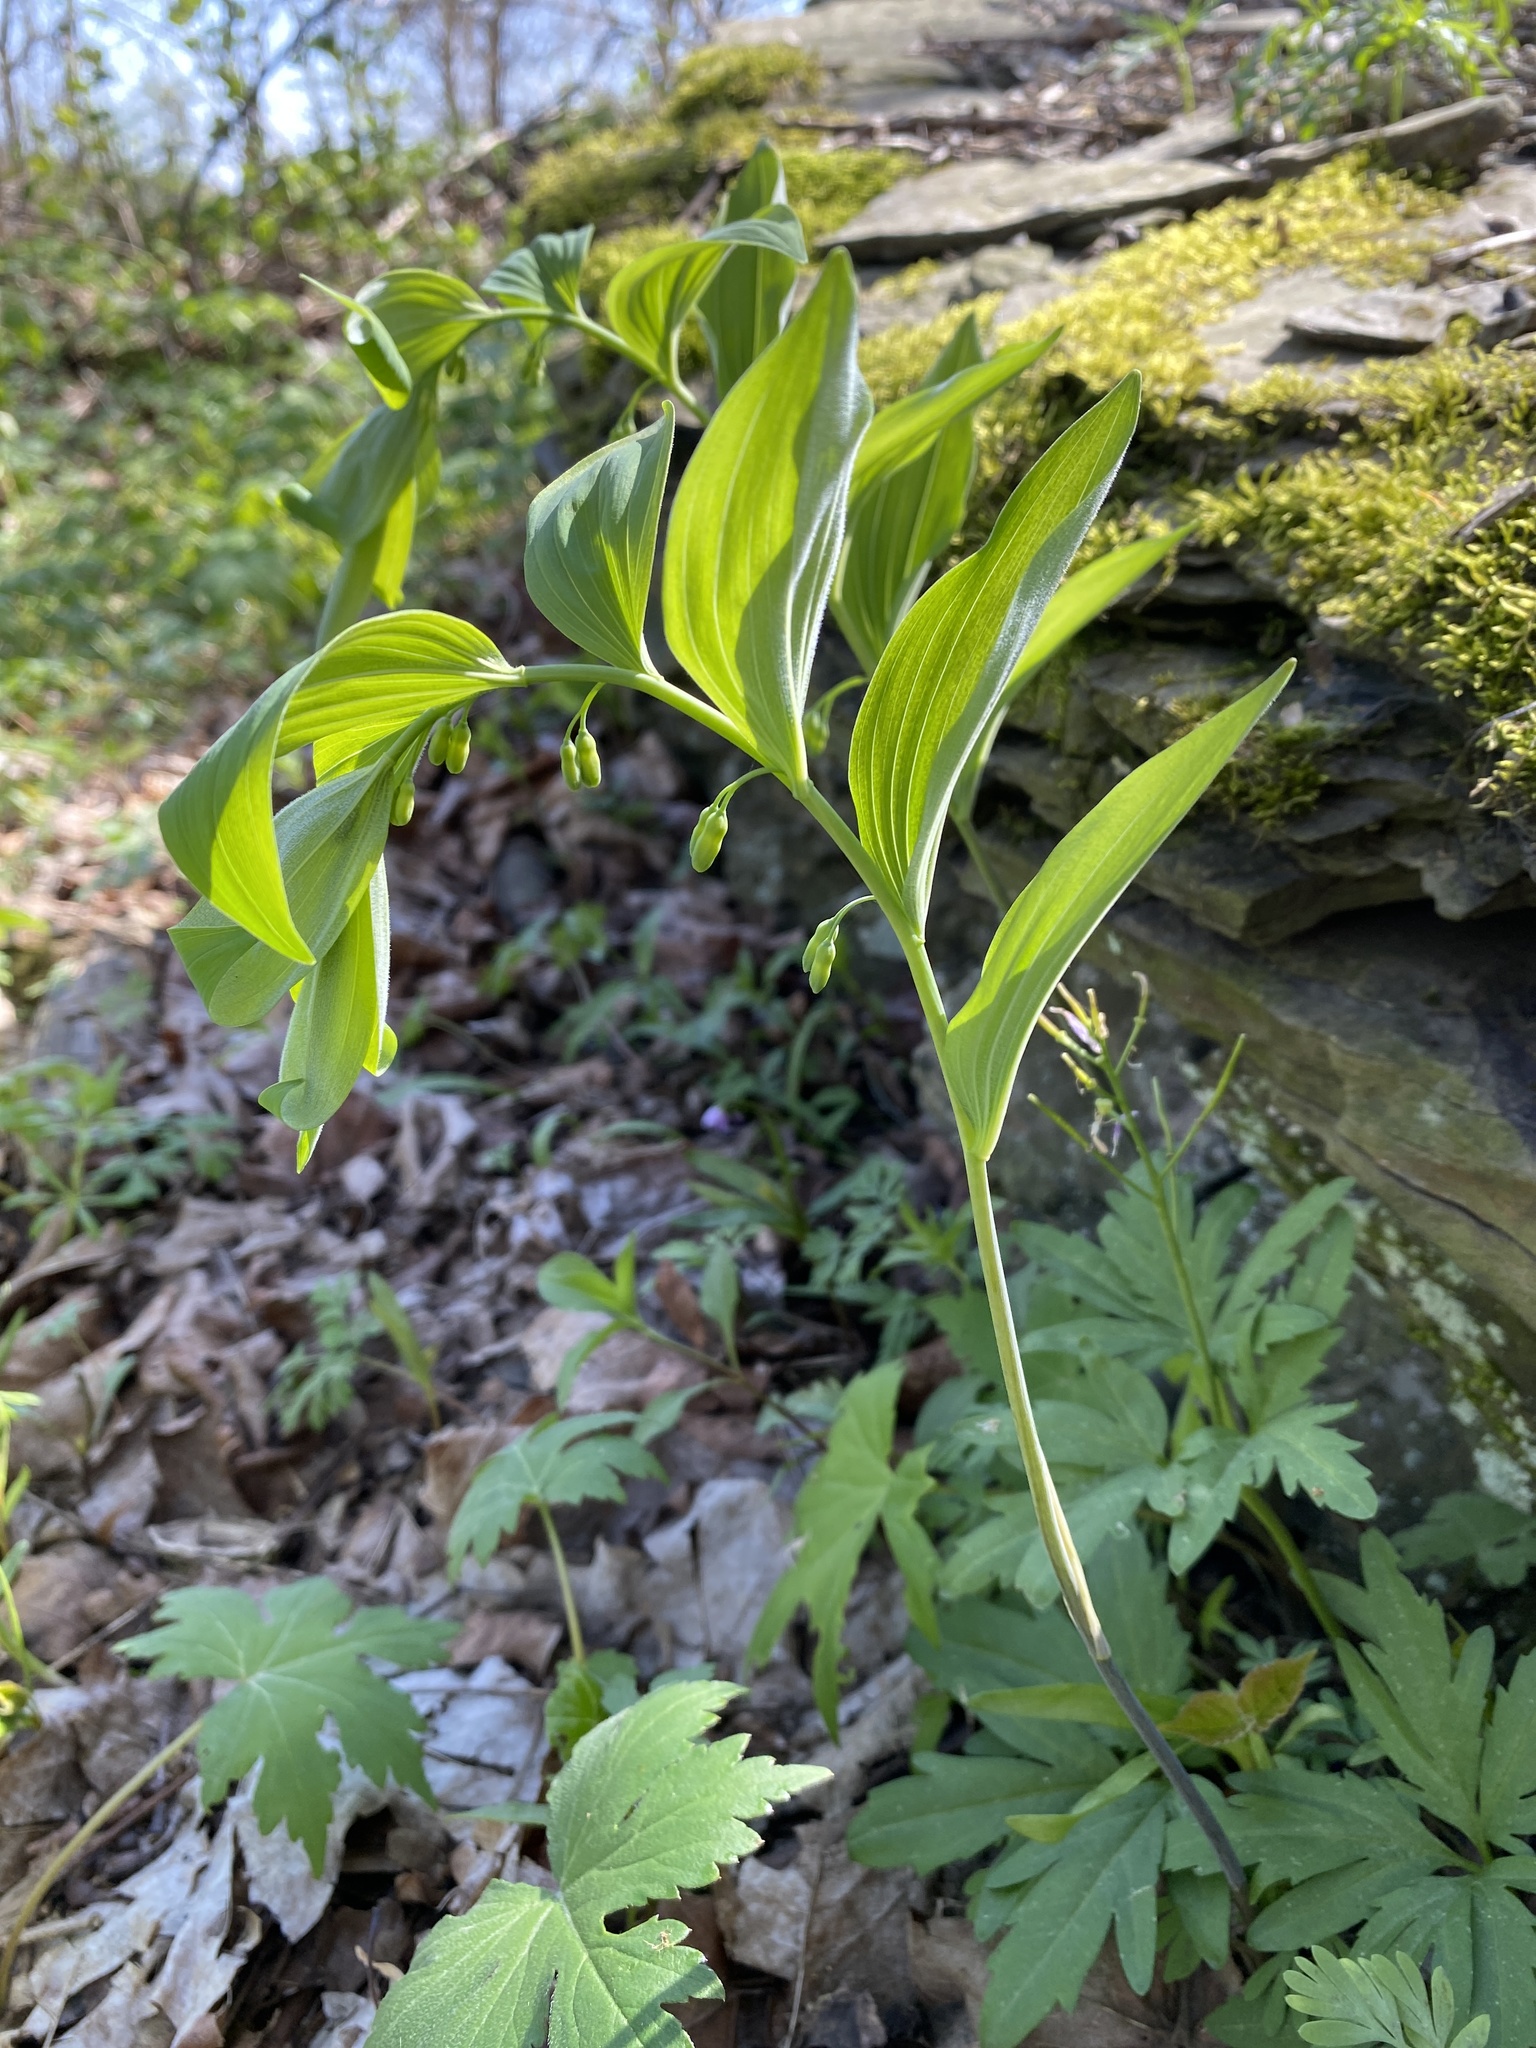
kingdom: Plantae
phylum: Tracheophyta
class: Liliopsida
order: Asparagales
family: Asparagaceae
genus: Polygonatum
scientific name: Polygonatum pubescens
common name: Downy solomon's seal
